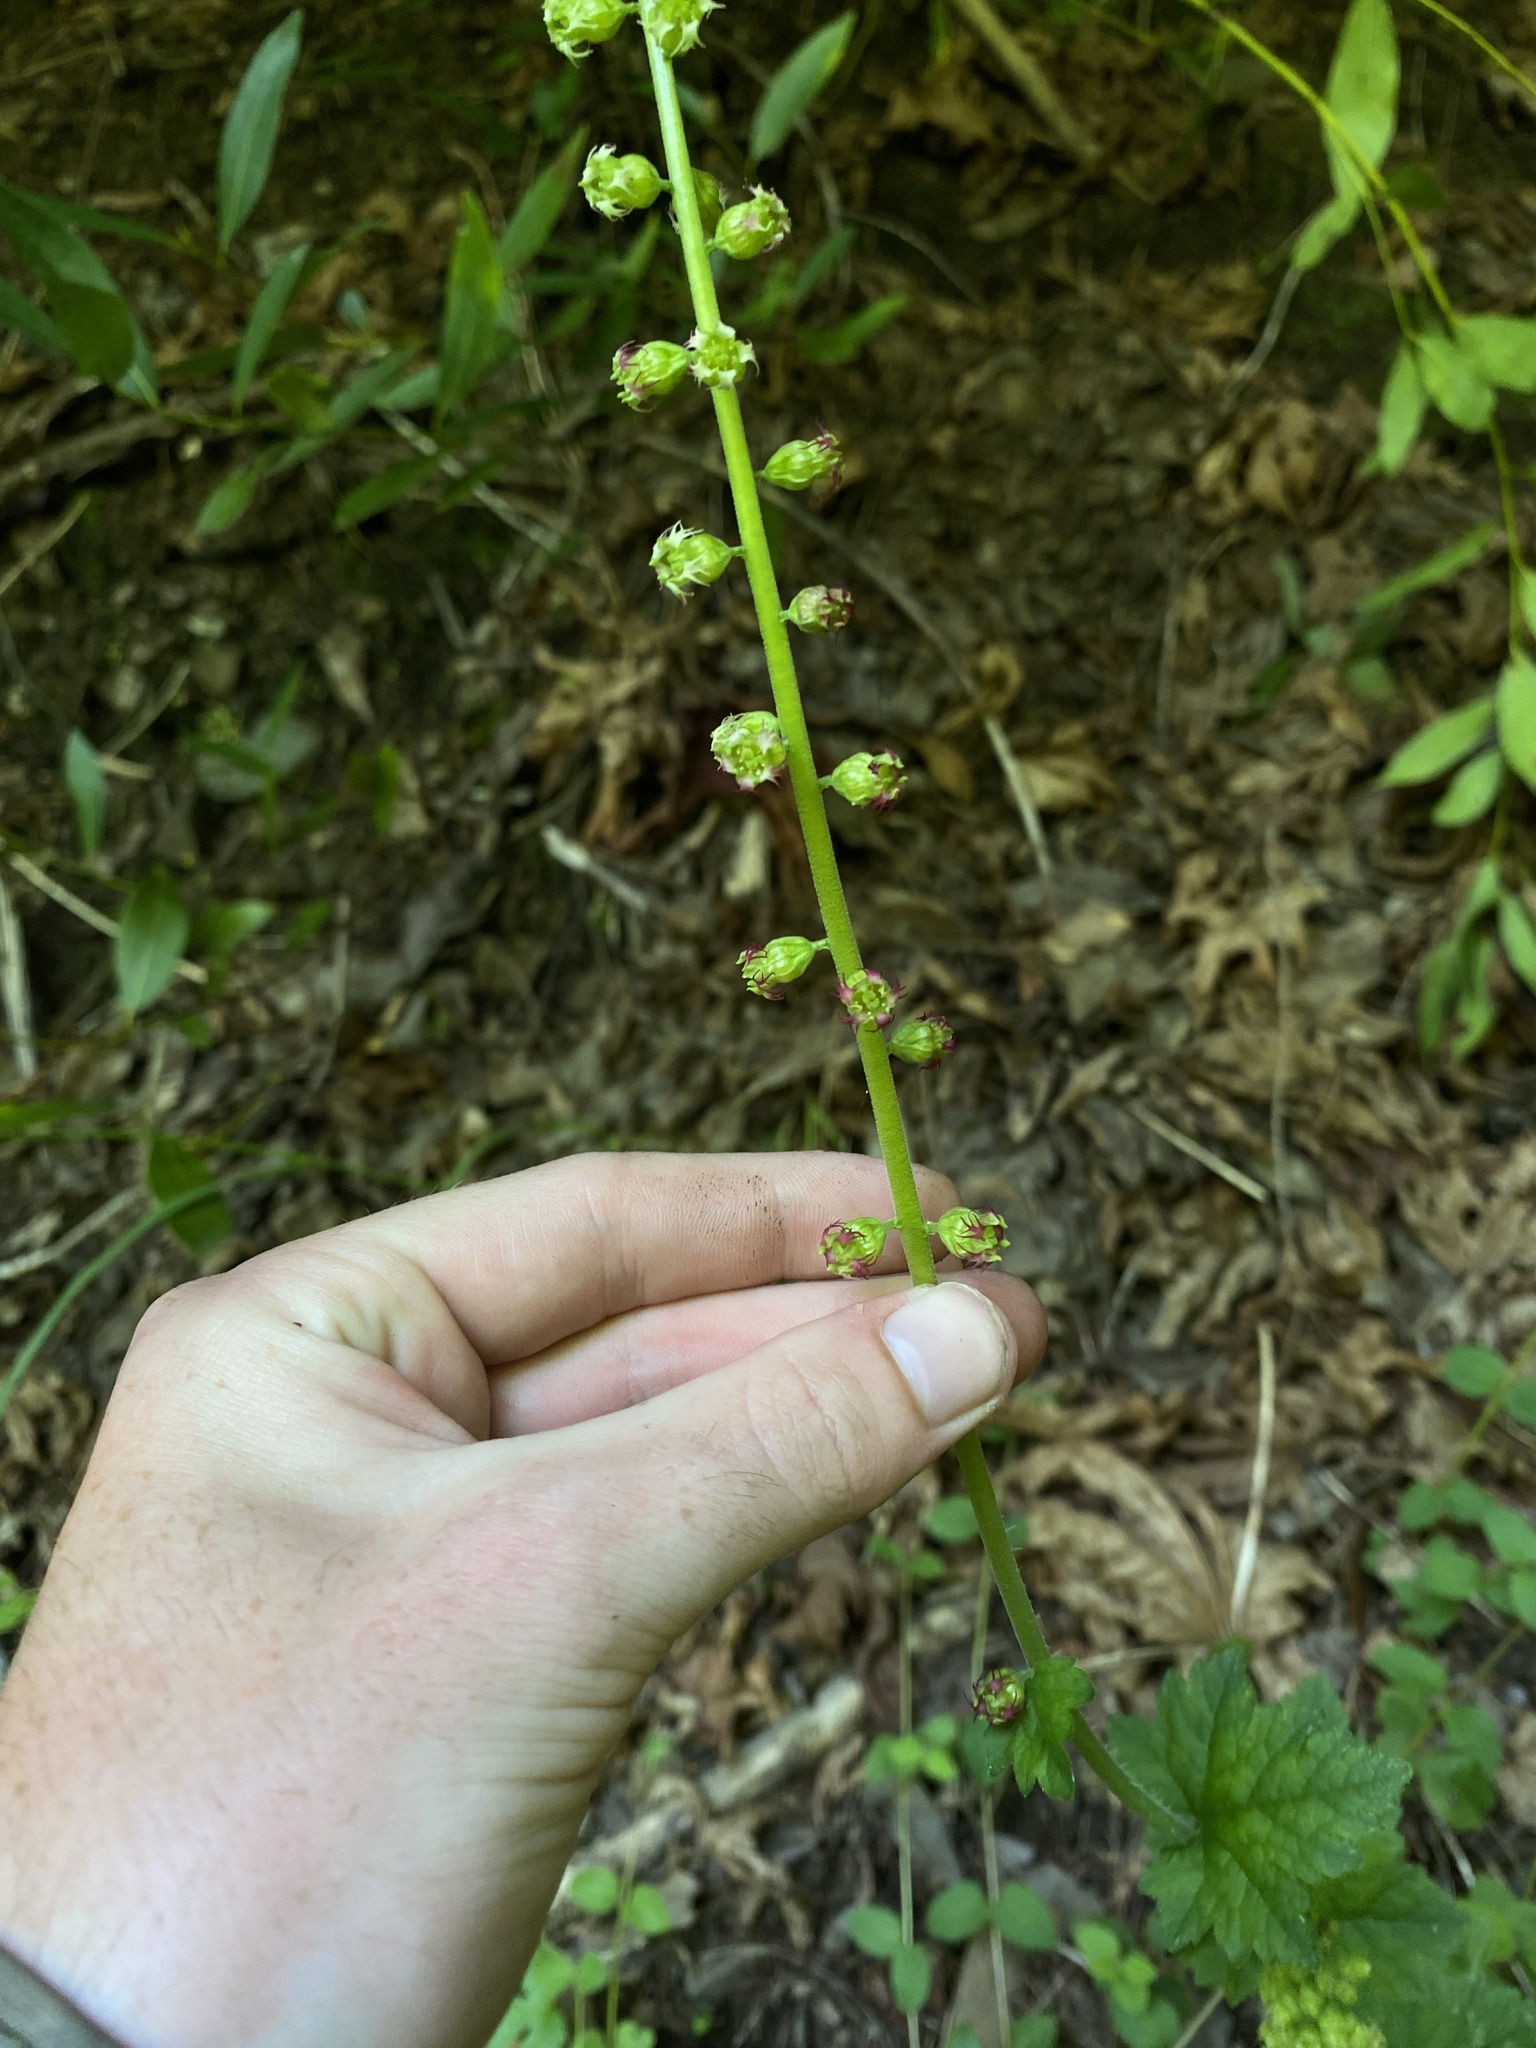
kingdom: Plantae
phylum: Tracheophyta
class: Magnoliopsida
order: Saxifragales
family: Saxifragaceae
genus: Tellima
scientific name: Tellima grandiflora
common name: Fringecups
